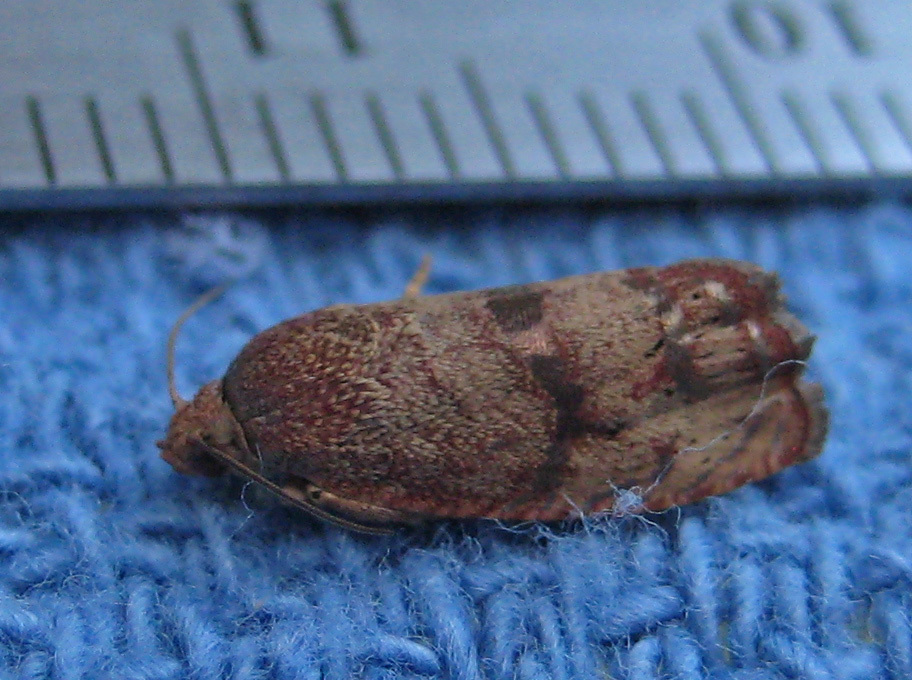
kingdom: Animalia
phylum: Arthropoda
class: Insecta
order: Lepidoptera
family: Tortricidae
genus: Cydia
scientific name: Cydia latiferreana
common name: Filbertworm moth
